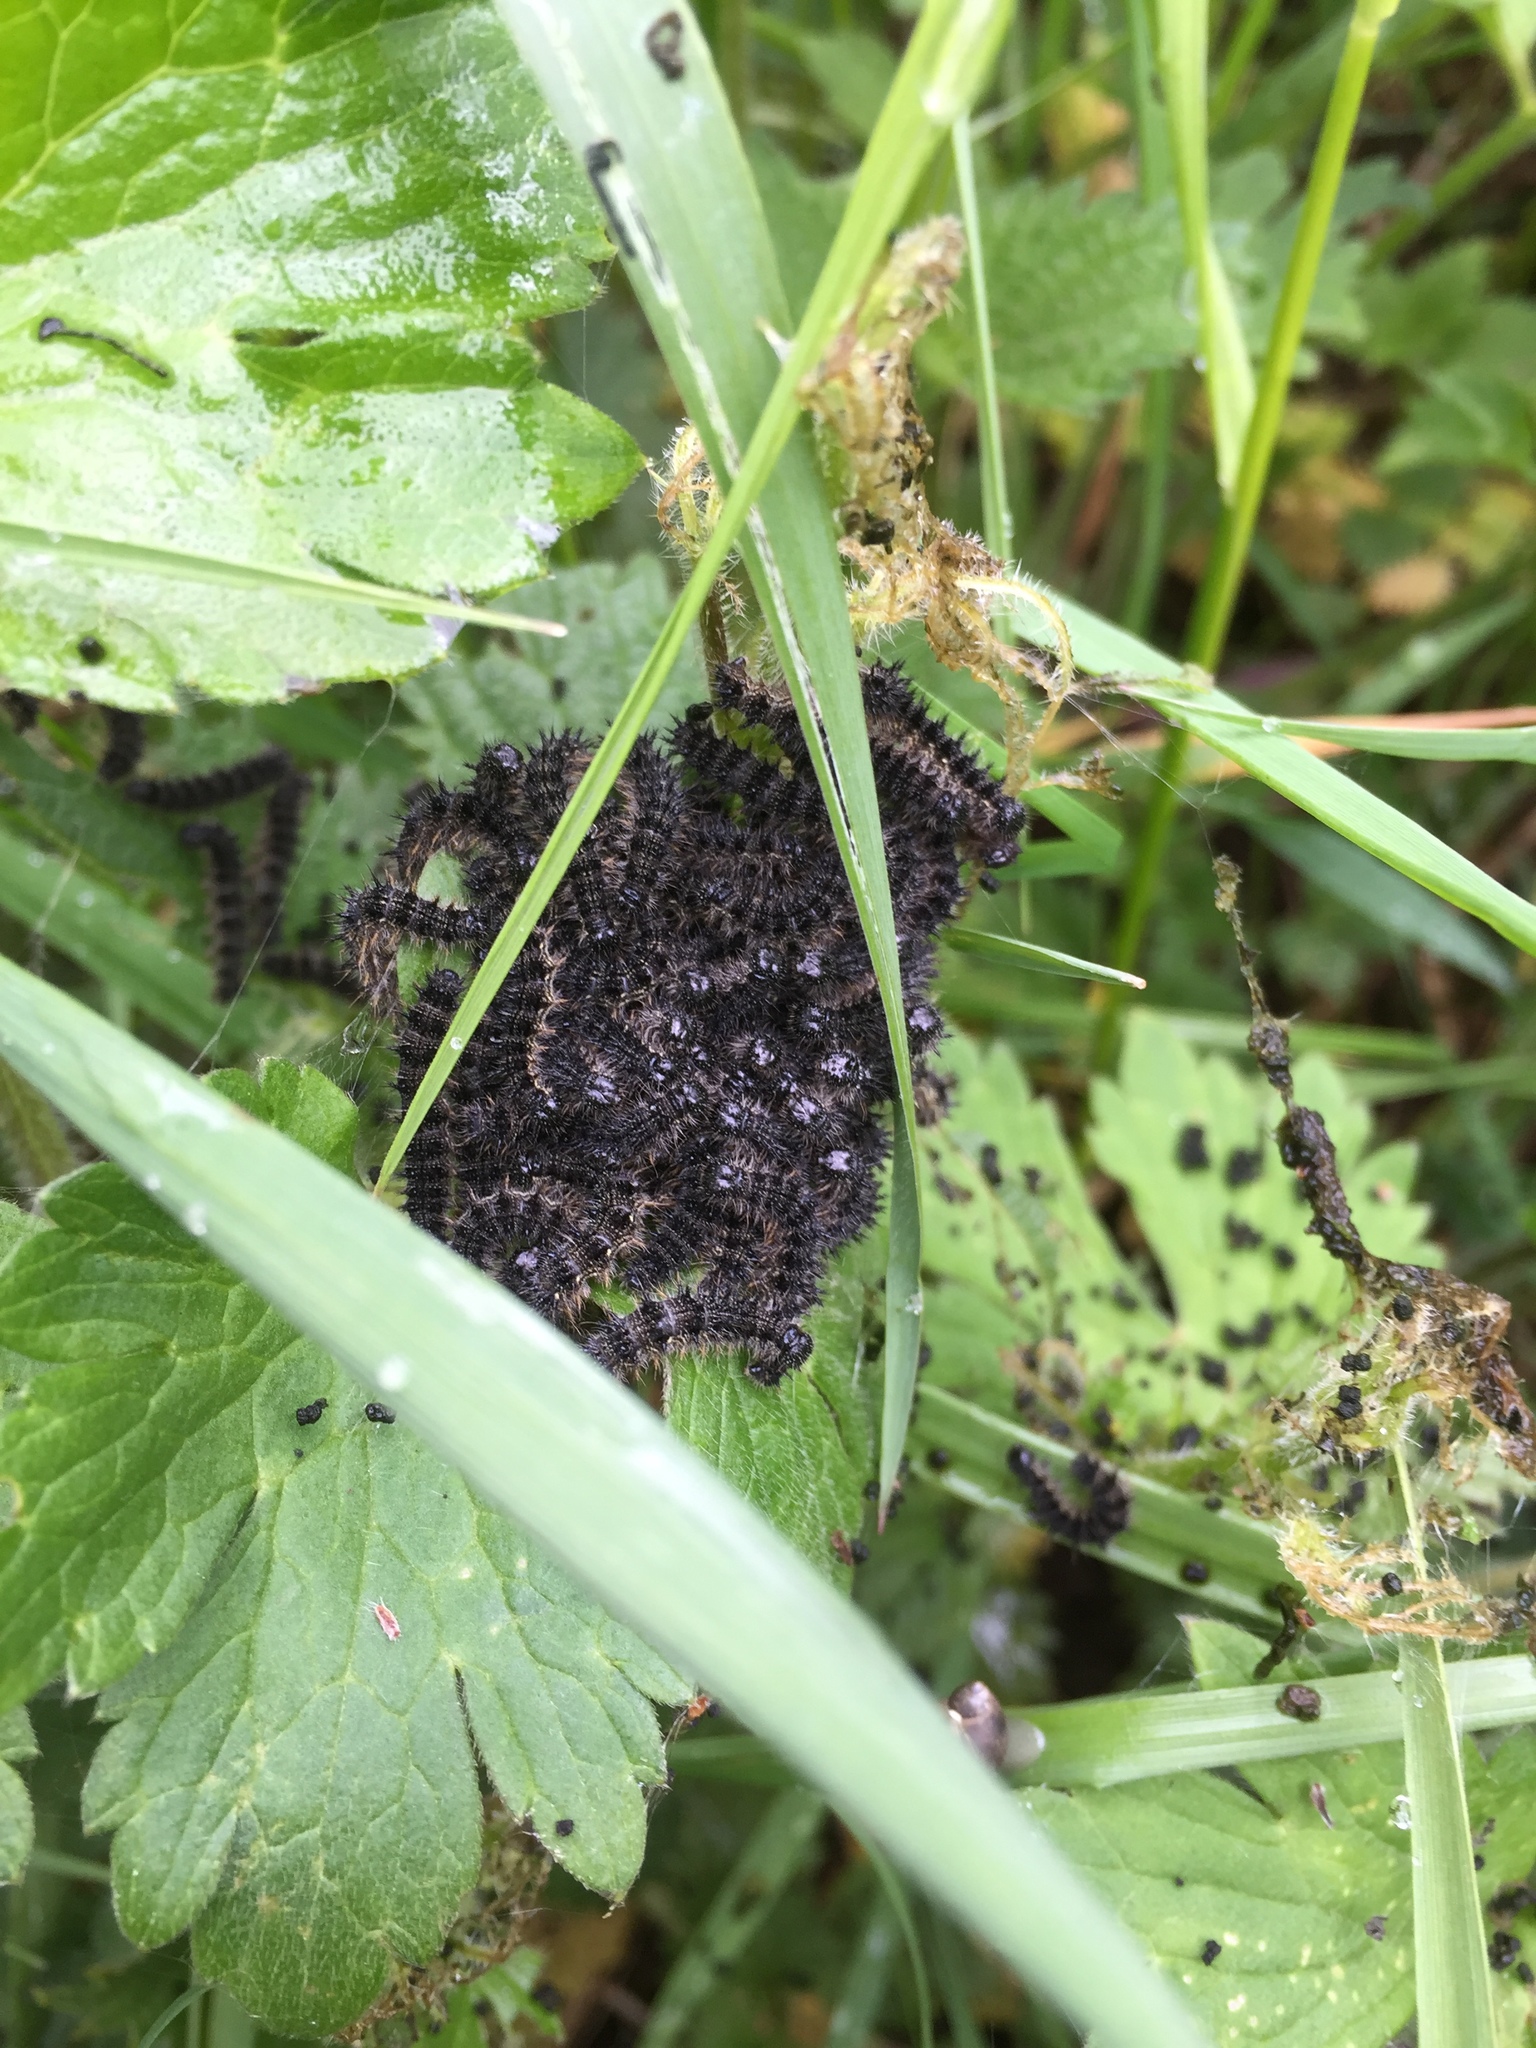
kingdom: Animalia
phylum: Arthropoda
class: Insecta
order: Lepidoptera
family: Nymphalidae
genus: Aglais
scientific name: Aglais io
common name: Peacock
